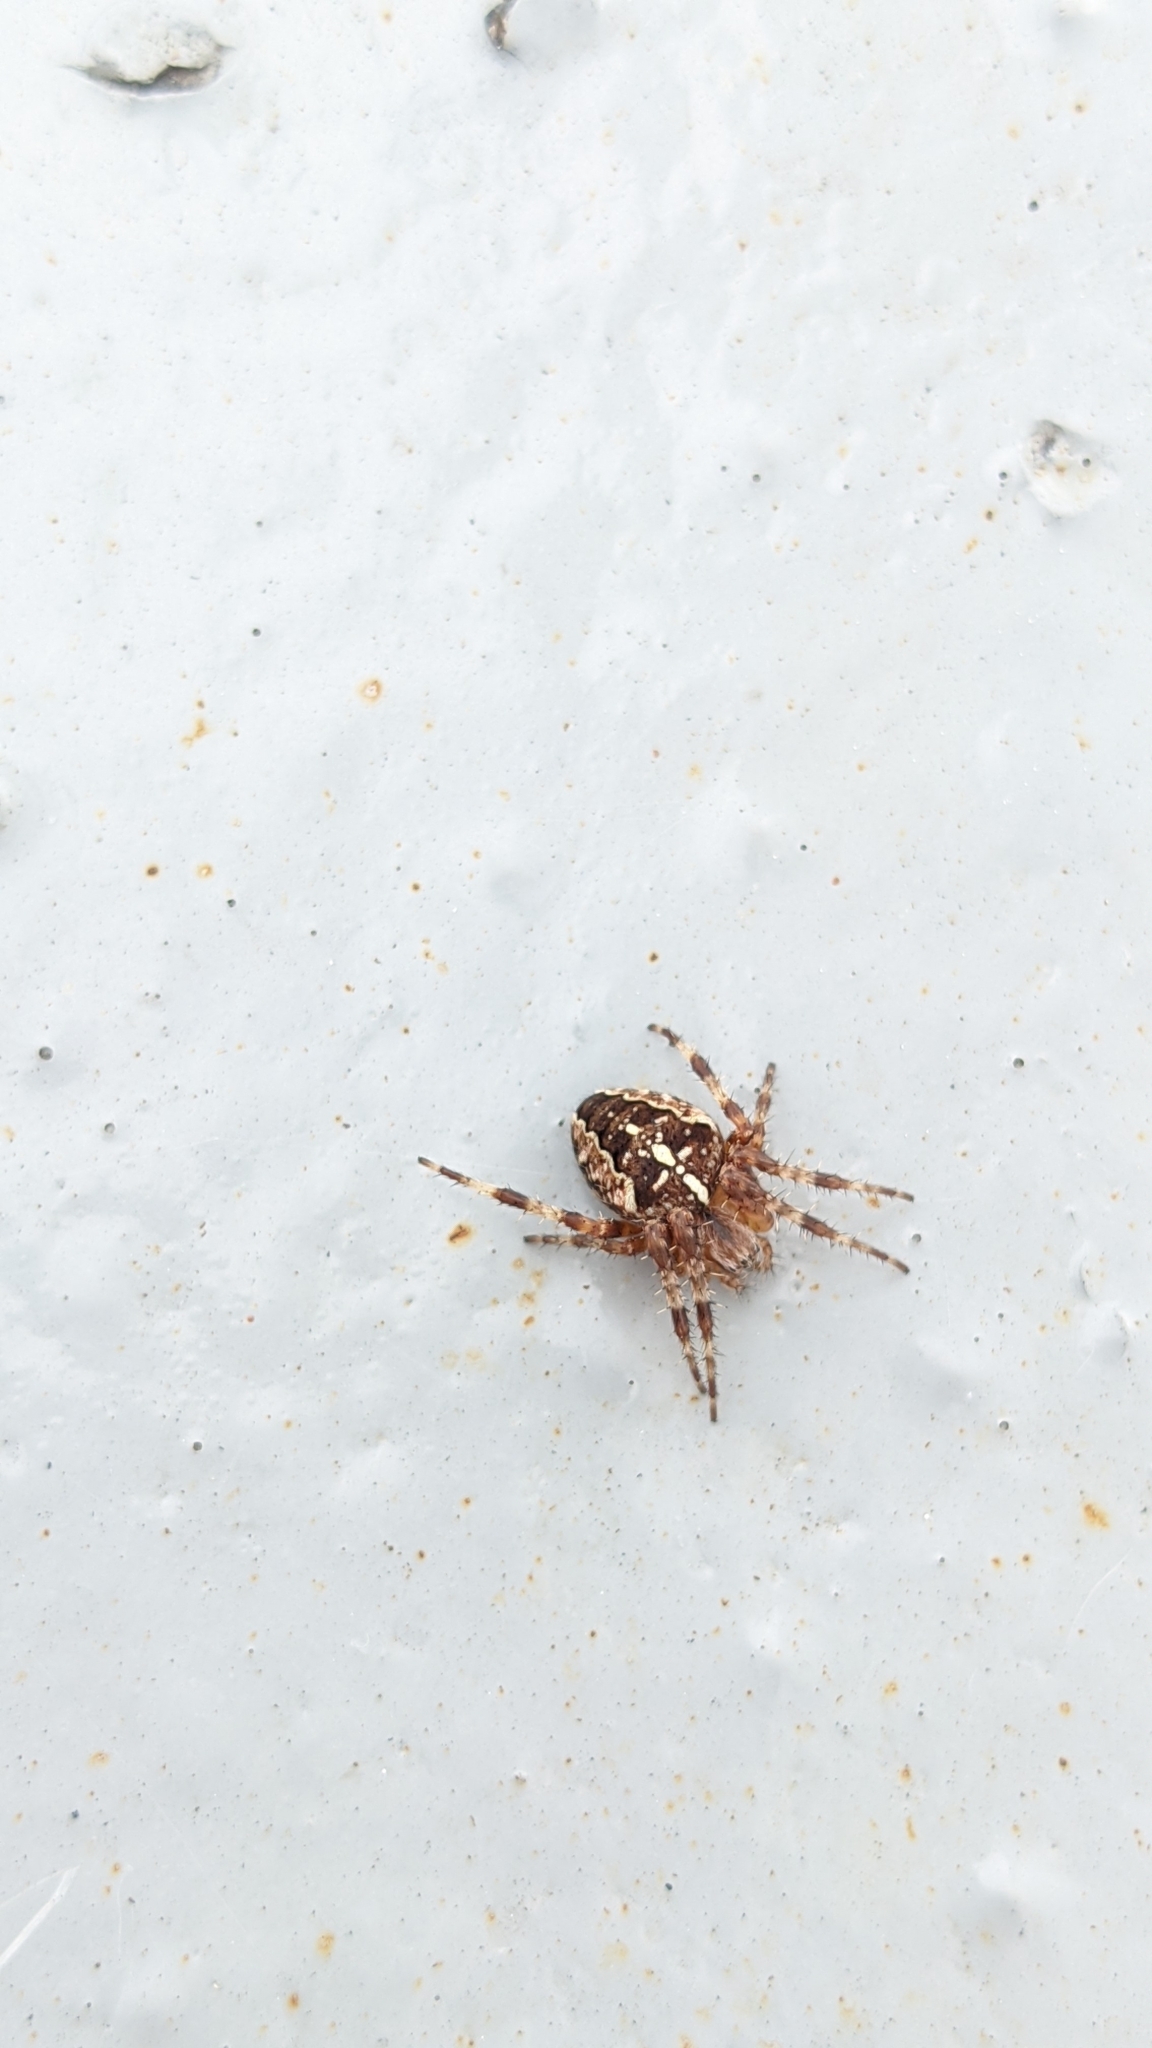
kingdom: Animalia
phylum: Arthropoda
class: Arachnida
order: Araneae
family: Araneidae
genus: Araneus
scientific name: Araneus diadematus
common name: Cross orbweaver
